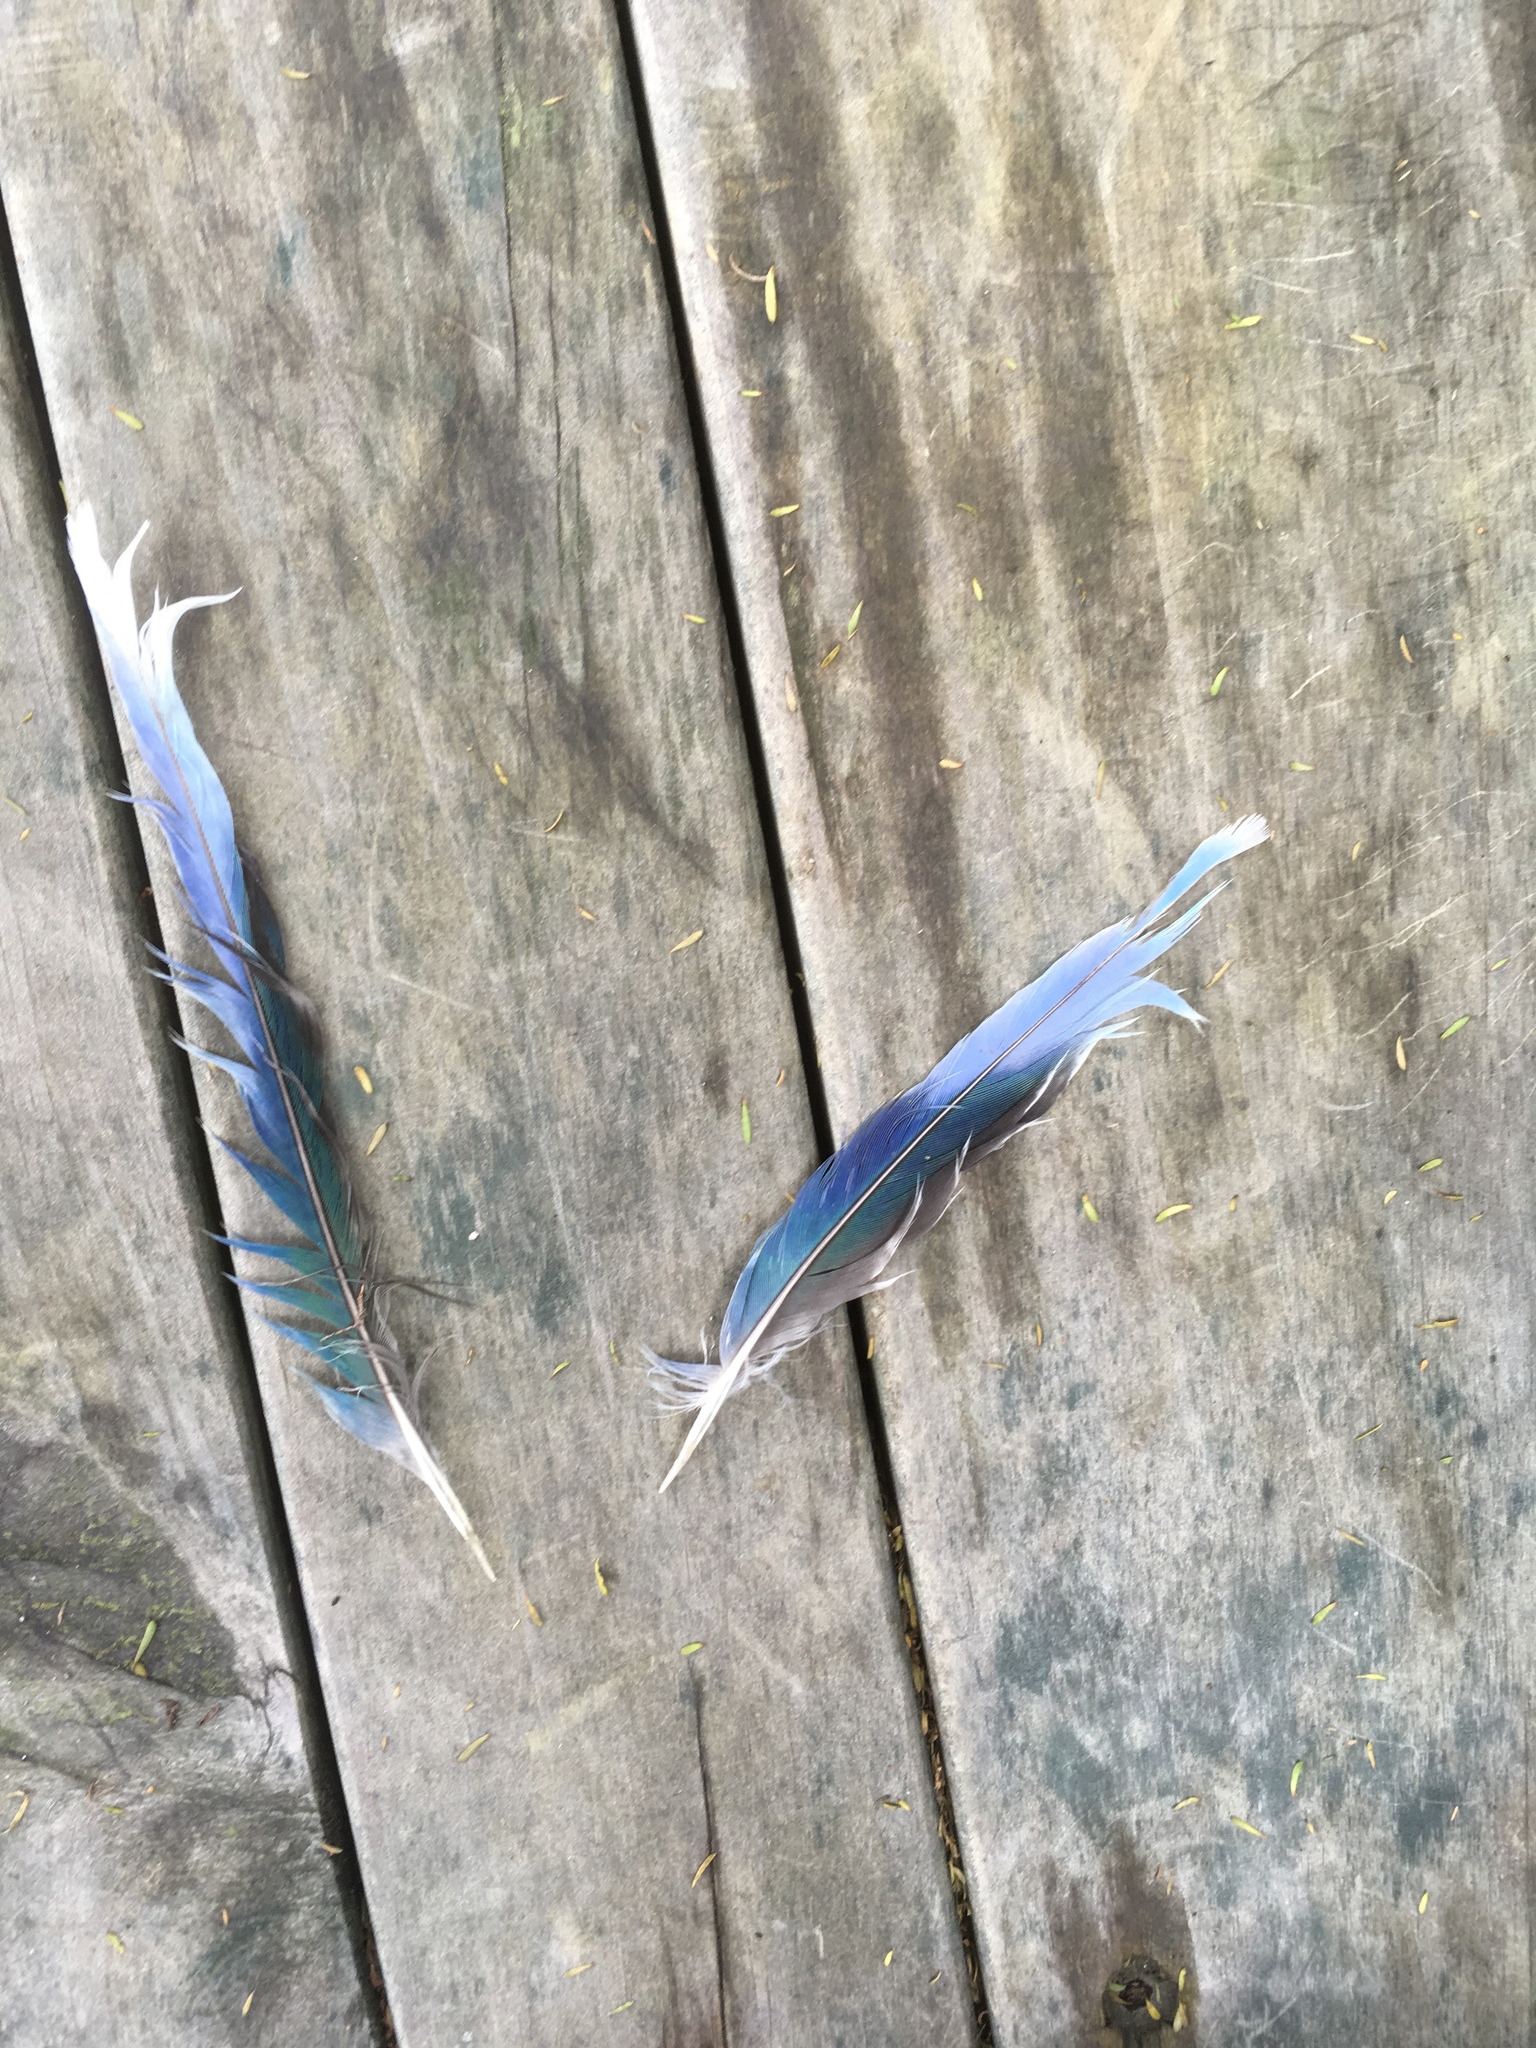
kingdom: Animalia
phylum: Chordata
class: Aves
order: Psittaciformes
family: Psittacidae
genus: Platycercus
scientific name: Platycercus eximius
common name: Eastern rosella
